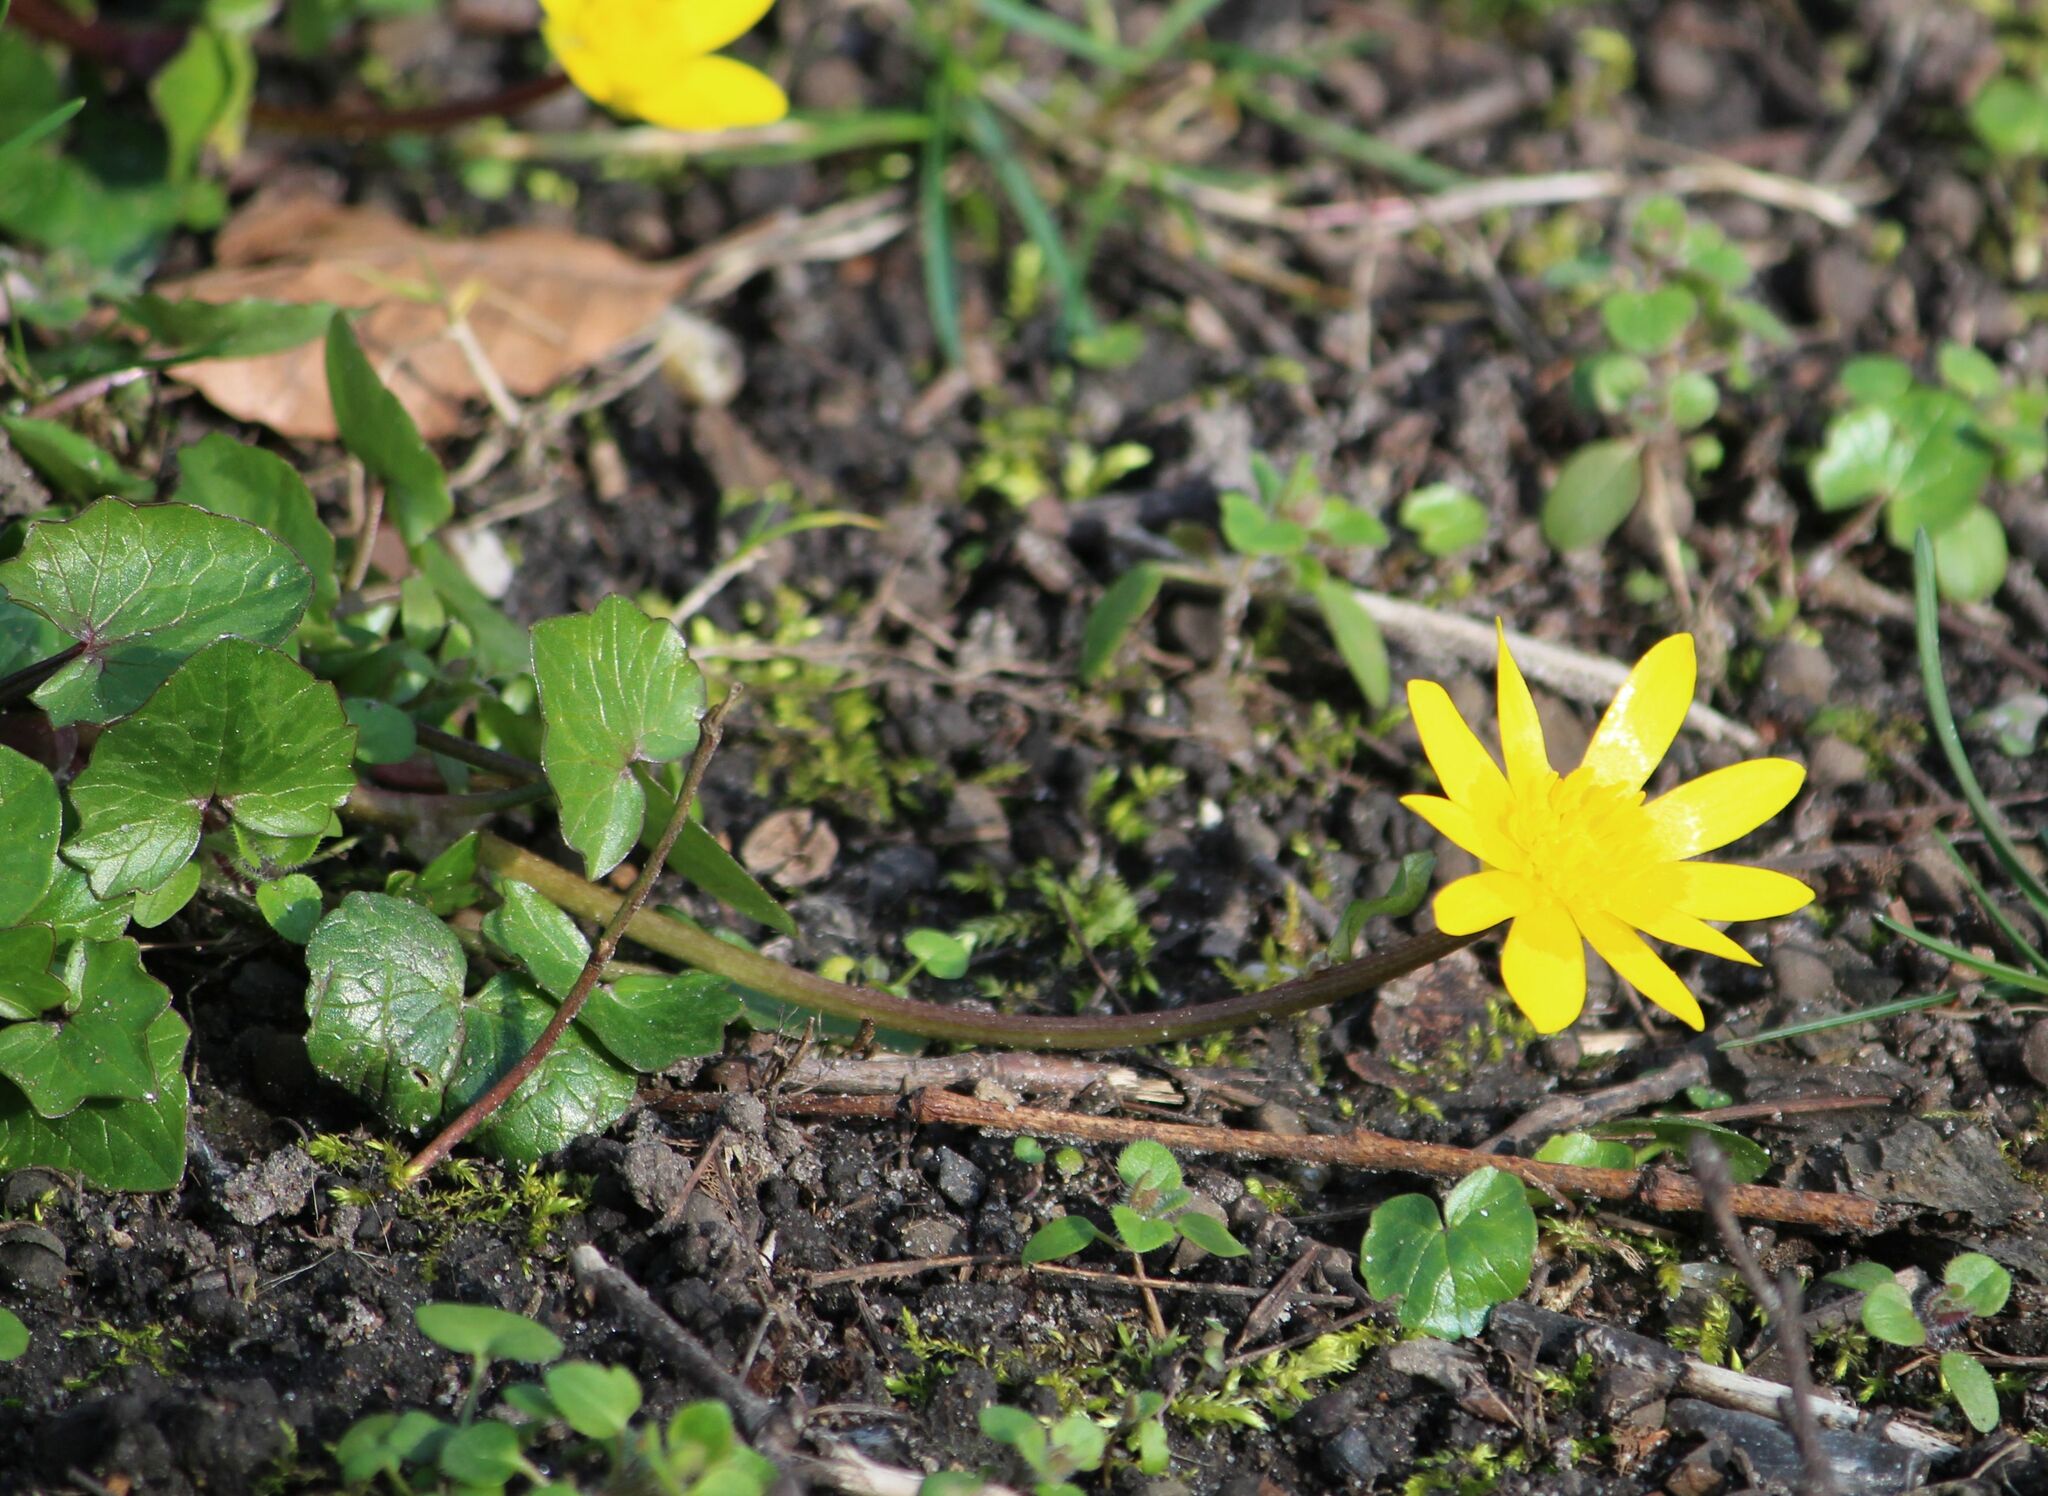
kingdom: Plantae
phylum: Tracheophyta
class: Magnoliopsida
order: Ranunculales
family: Ranunculaceae
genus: Ficaria
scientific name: Ficaria verna
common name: Lesser celandine
